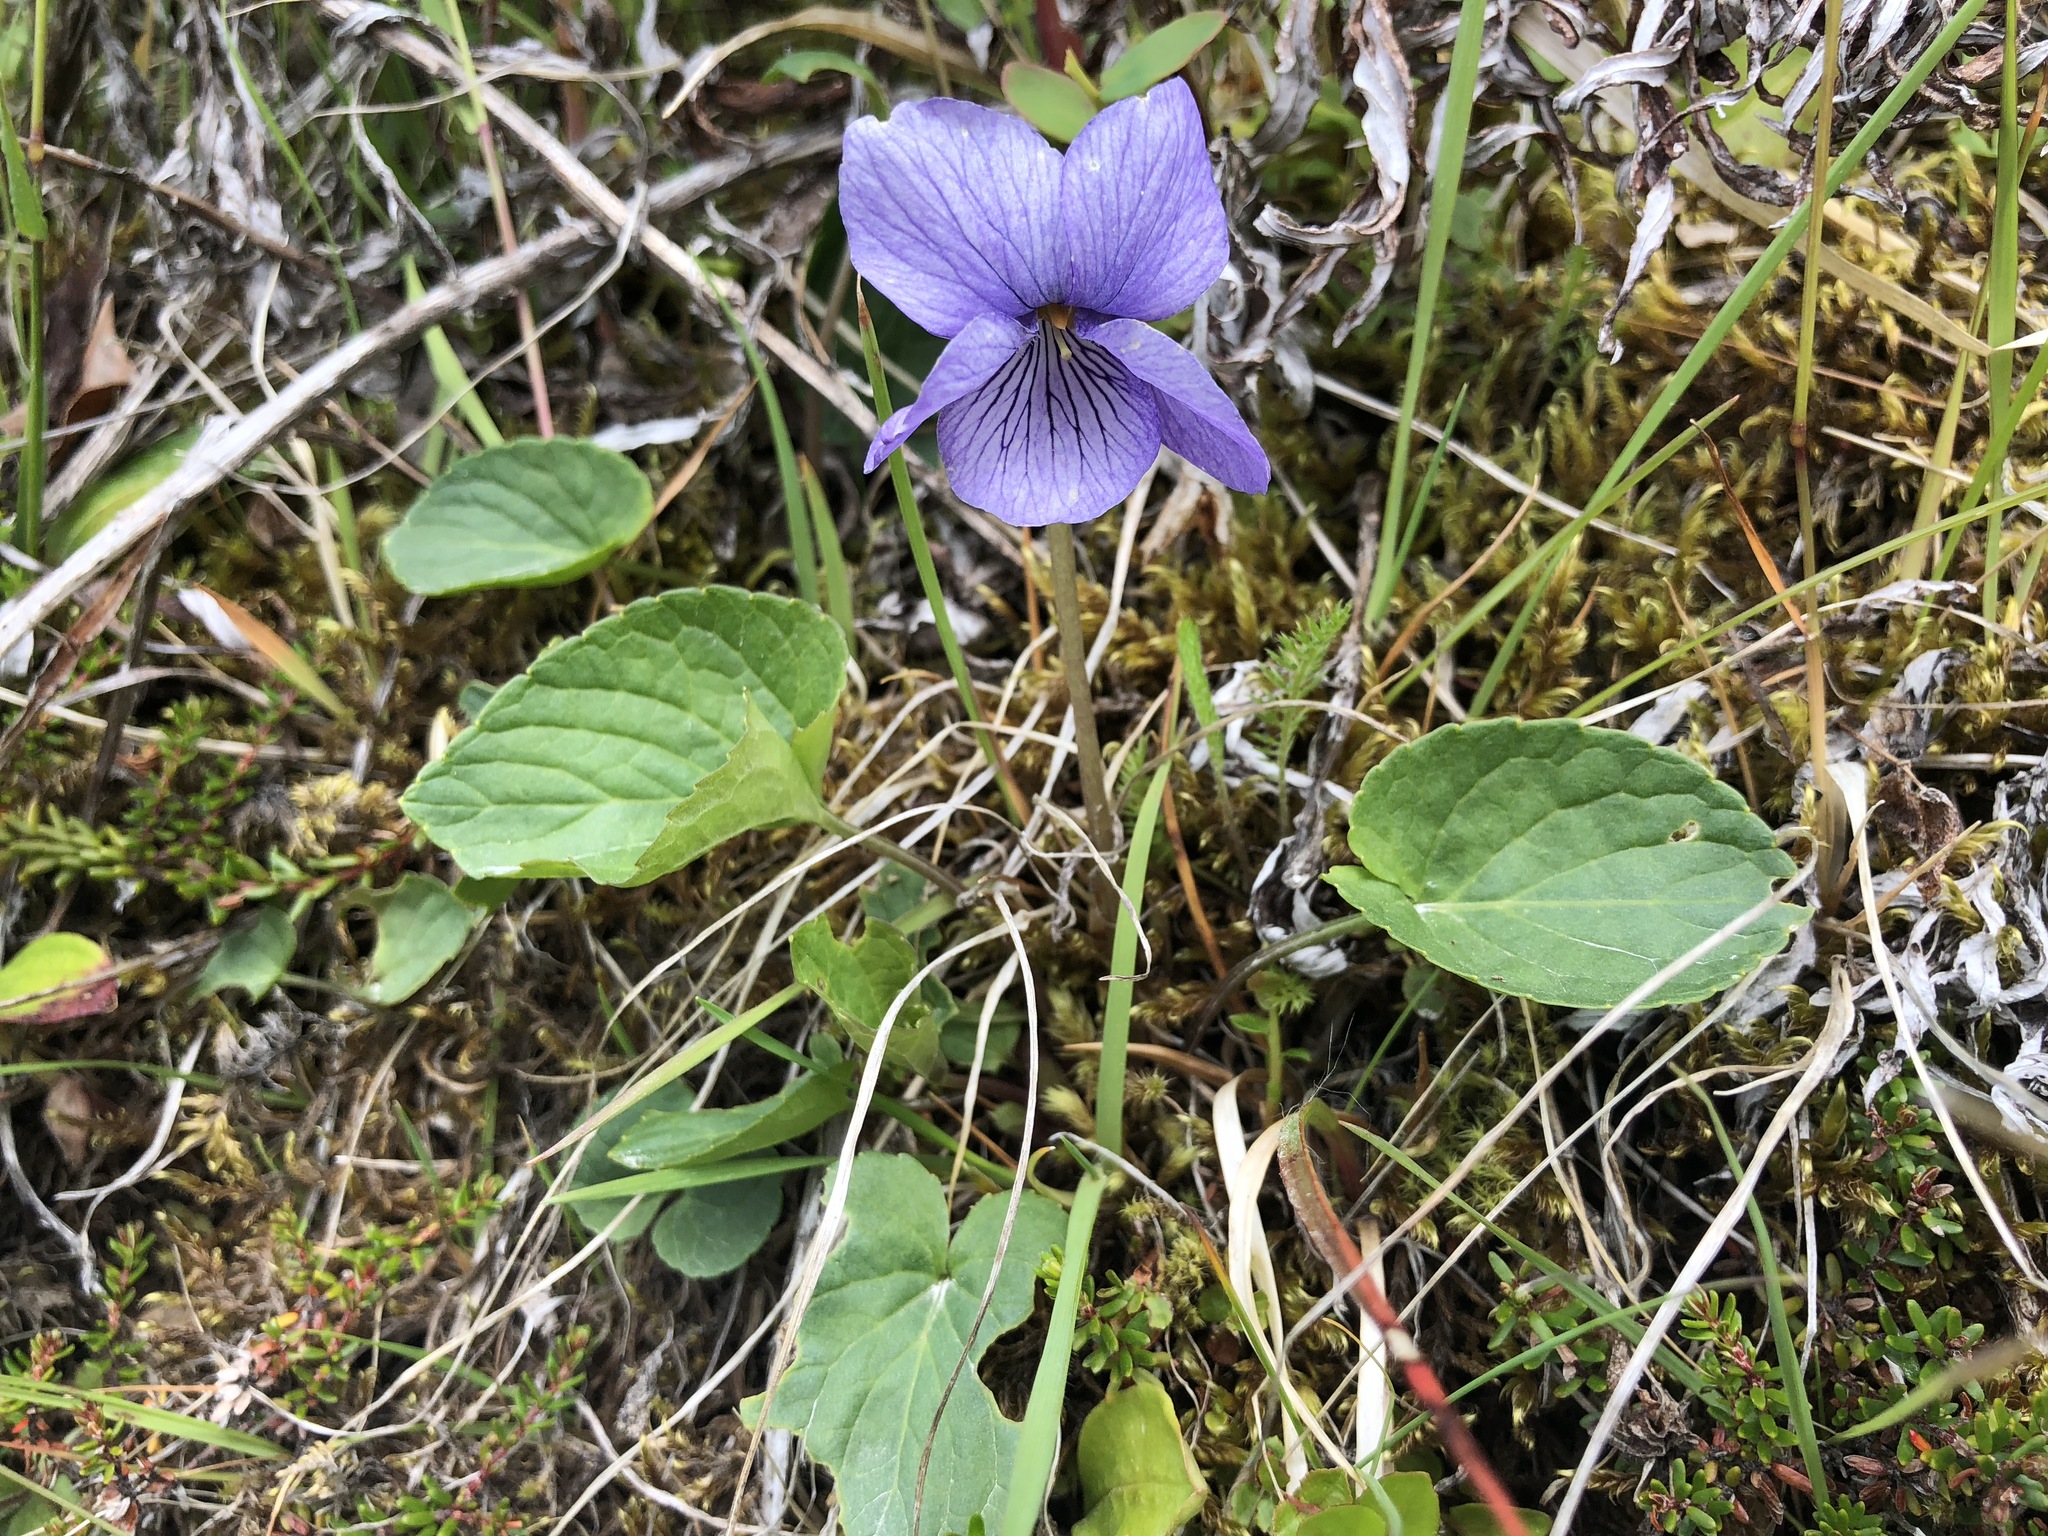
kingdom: Plantae
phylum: Tracheophyta
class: Magnoliopsida
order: Malpighiales
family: Violaceae
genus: Viola
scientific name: Viola langsdorffii
